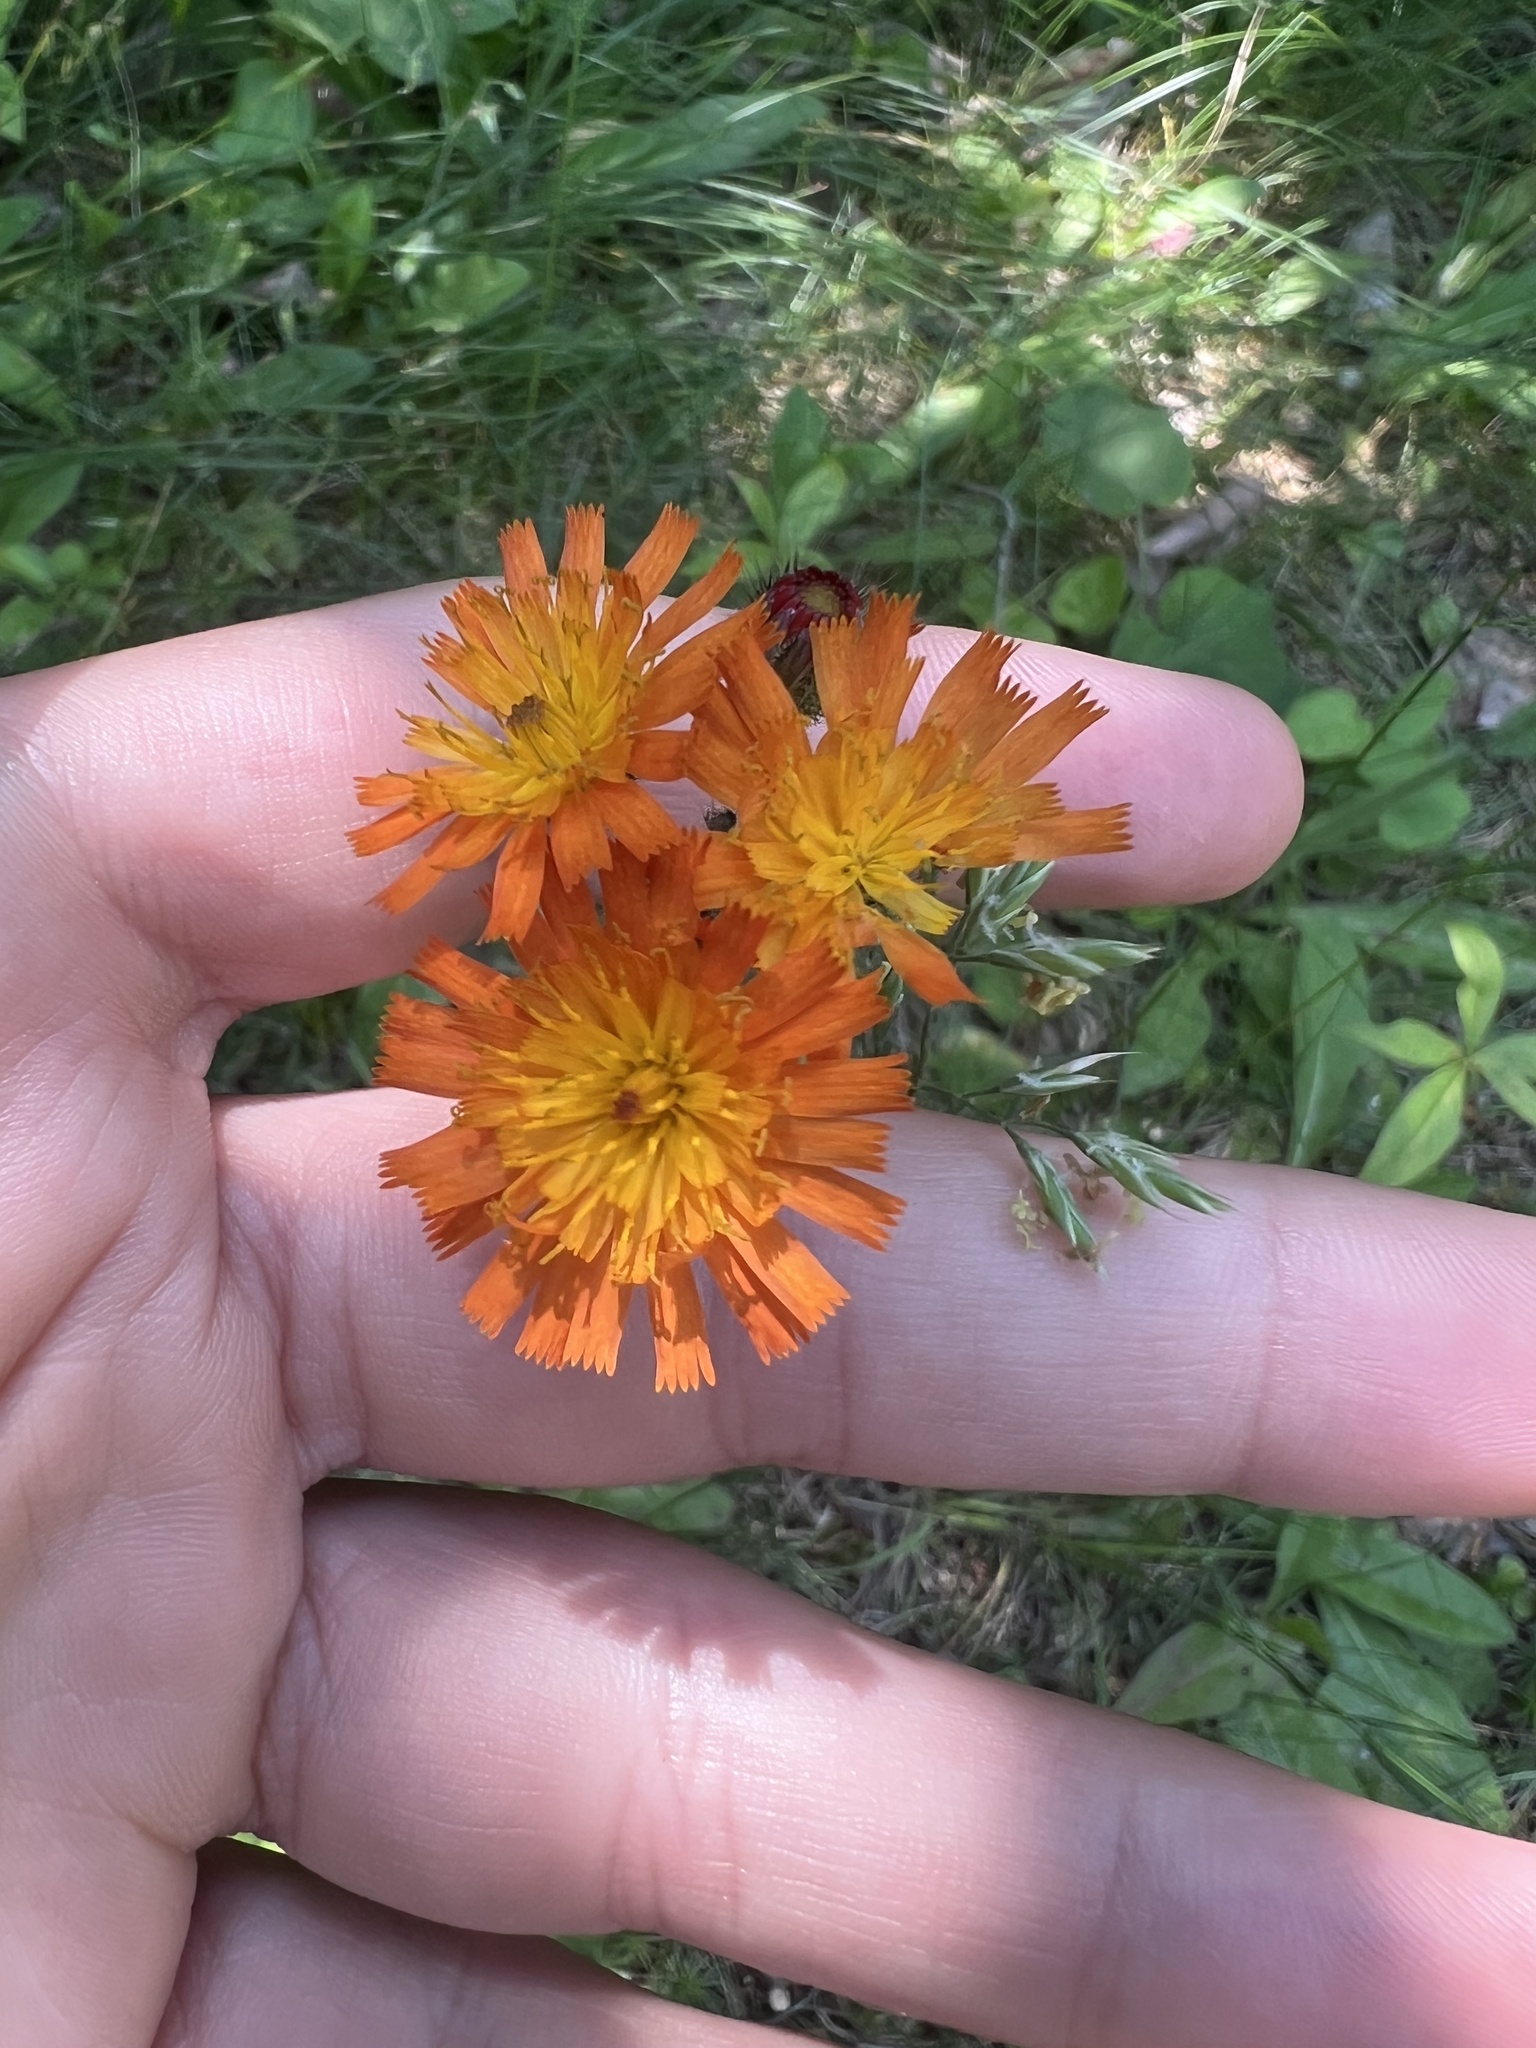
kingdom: Plantae
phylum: Tracheophyta
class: Magnoliopsida
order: Asterales
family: Asteraceae
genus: Pilosella
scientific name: Pilosella aurantiaca
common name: Fox-and-cubs
